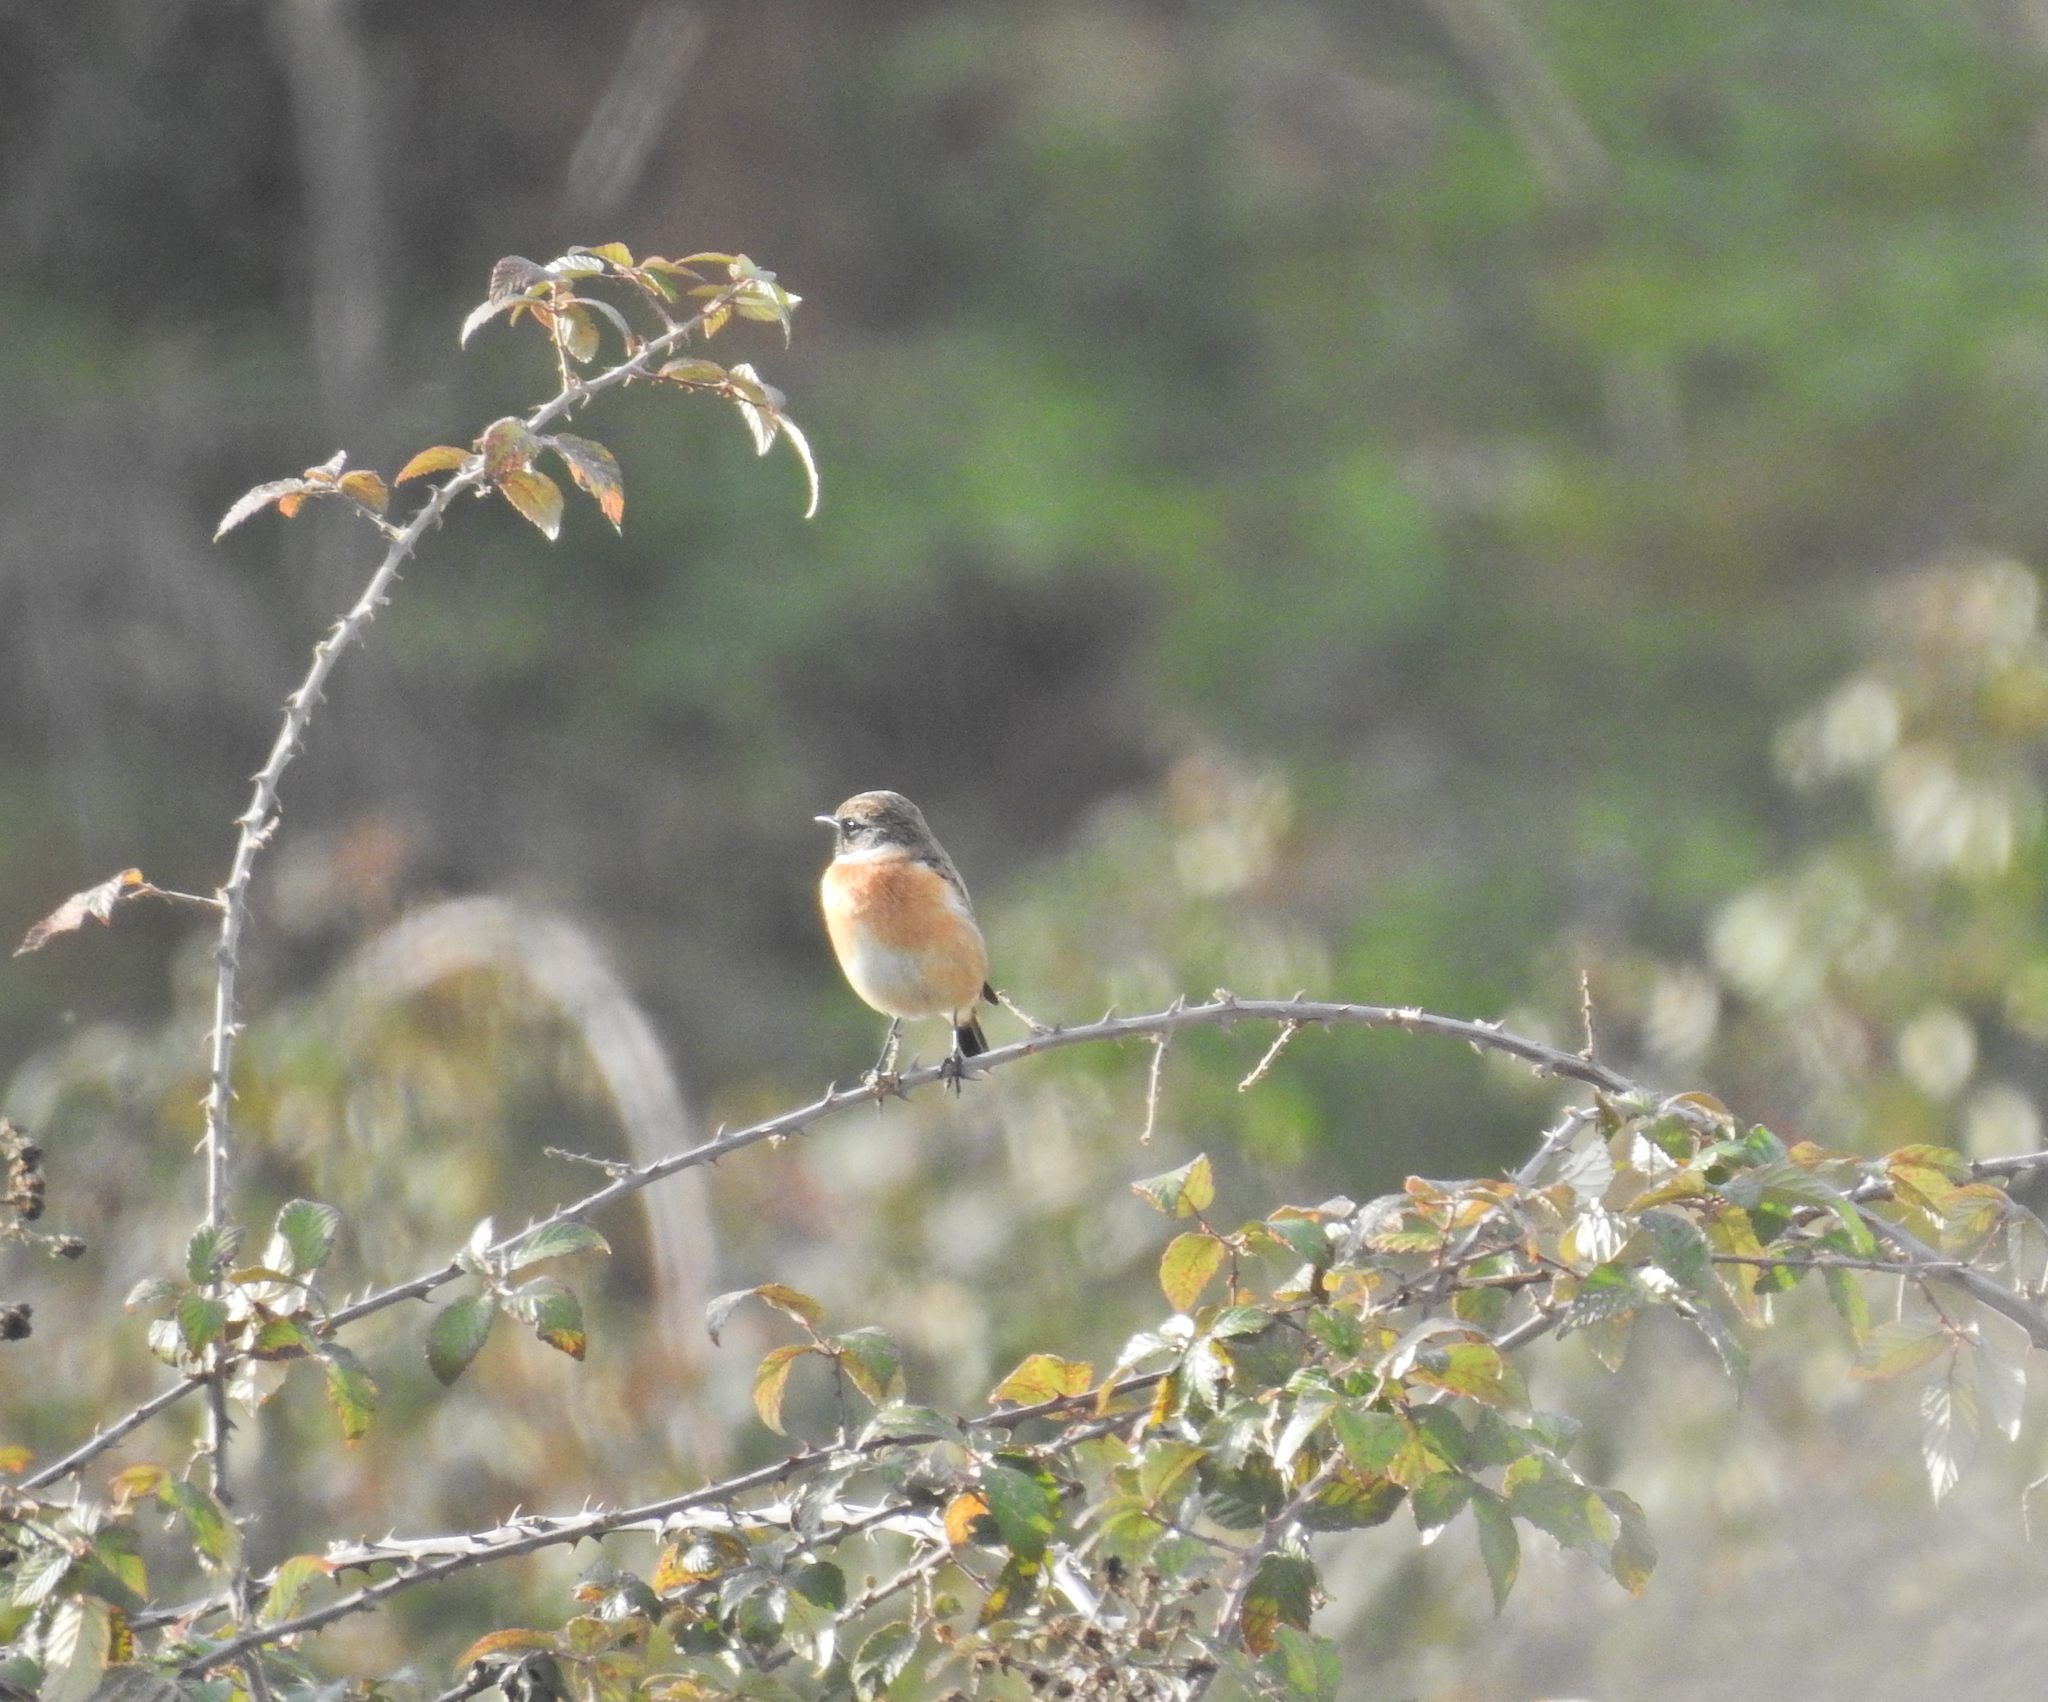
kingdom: Animalia
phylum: Chordata
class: Aves
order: Passeriformes
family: Muscicapidae
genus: Saxicola
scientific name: Saxicola rubicola
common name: European stonechat
